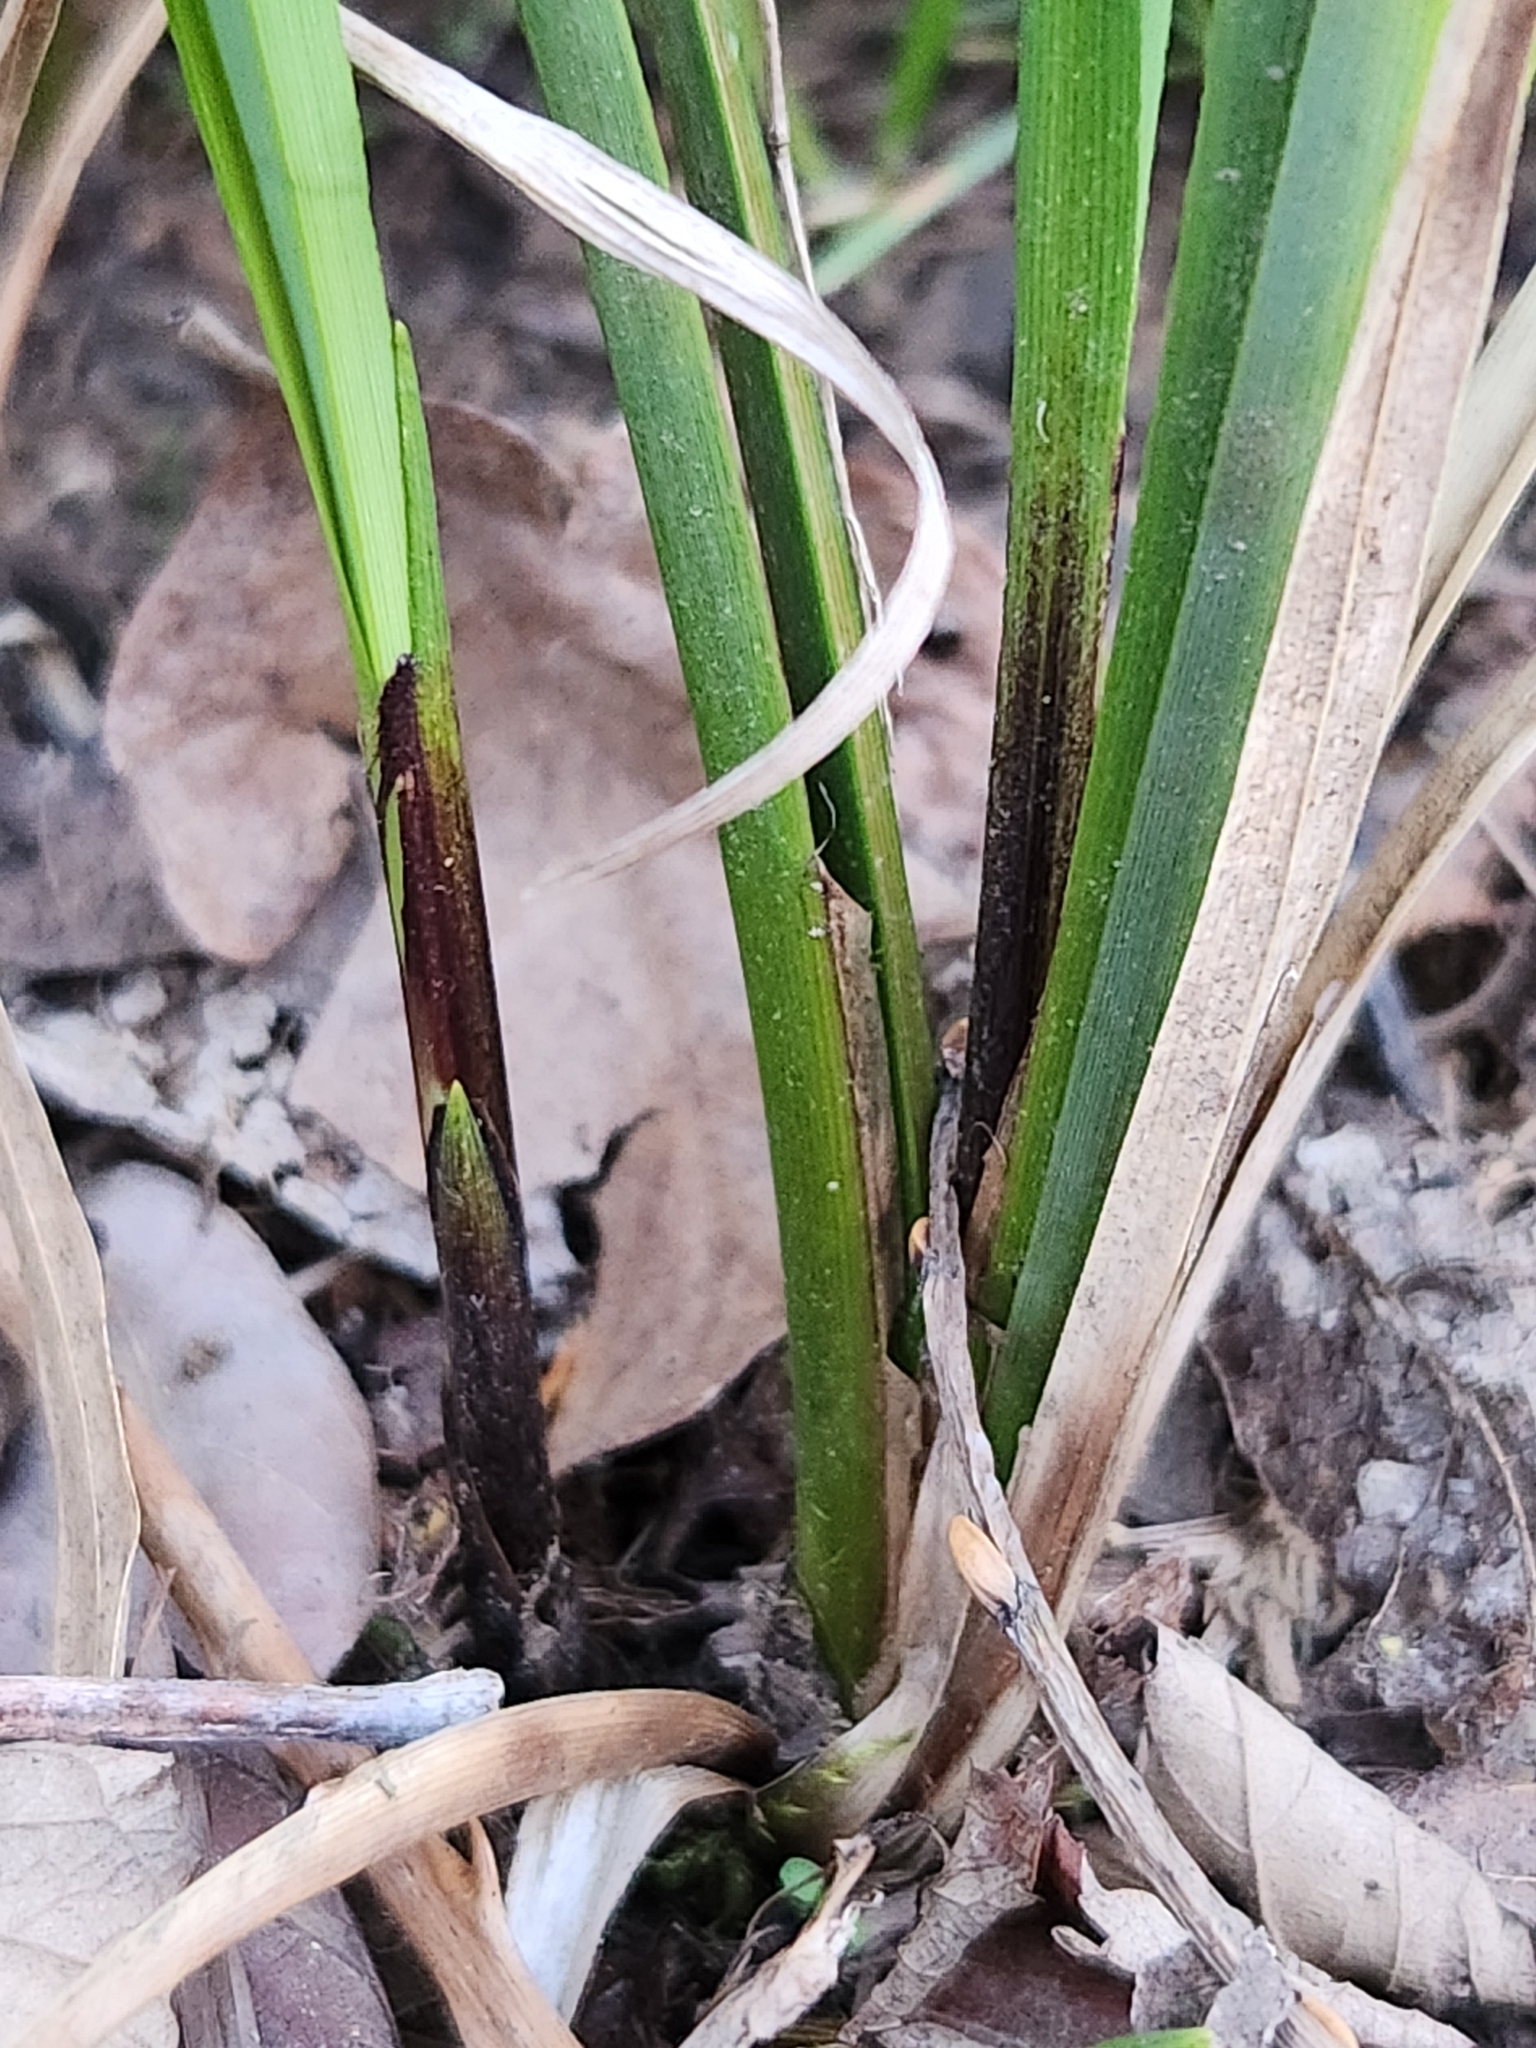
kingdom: Plantae
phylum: Tracheophyta
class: Liliopsida
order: Poales
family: Cyperaceae
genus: Carex
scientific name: Carex obnupta
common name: Slough sedge
